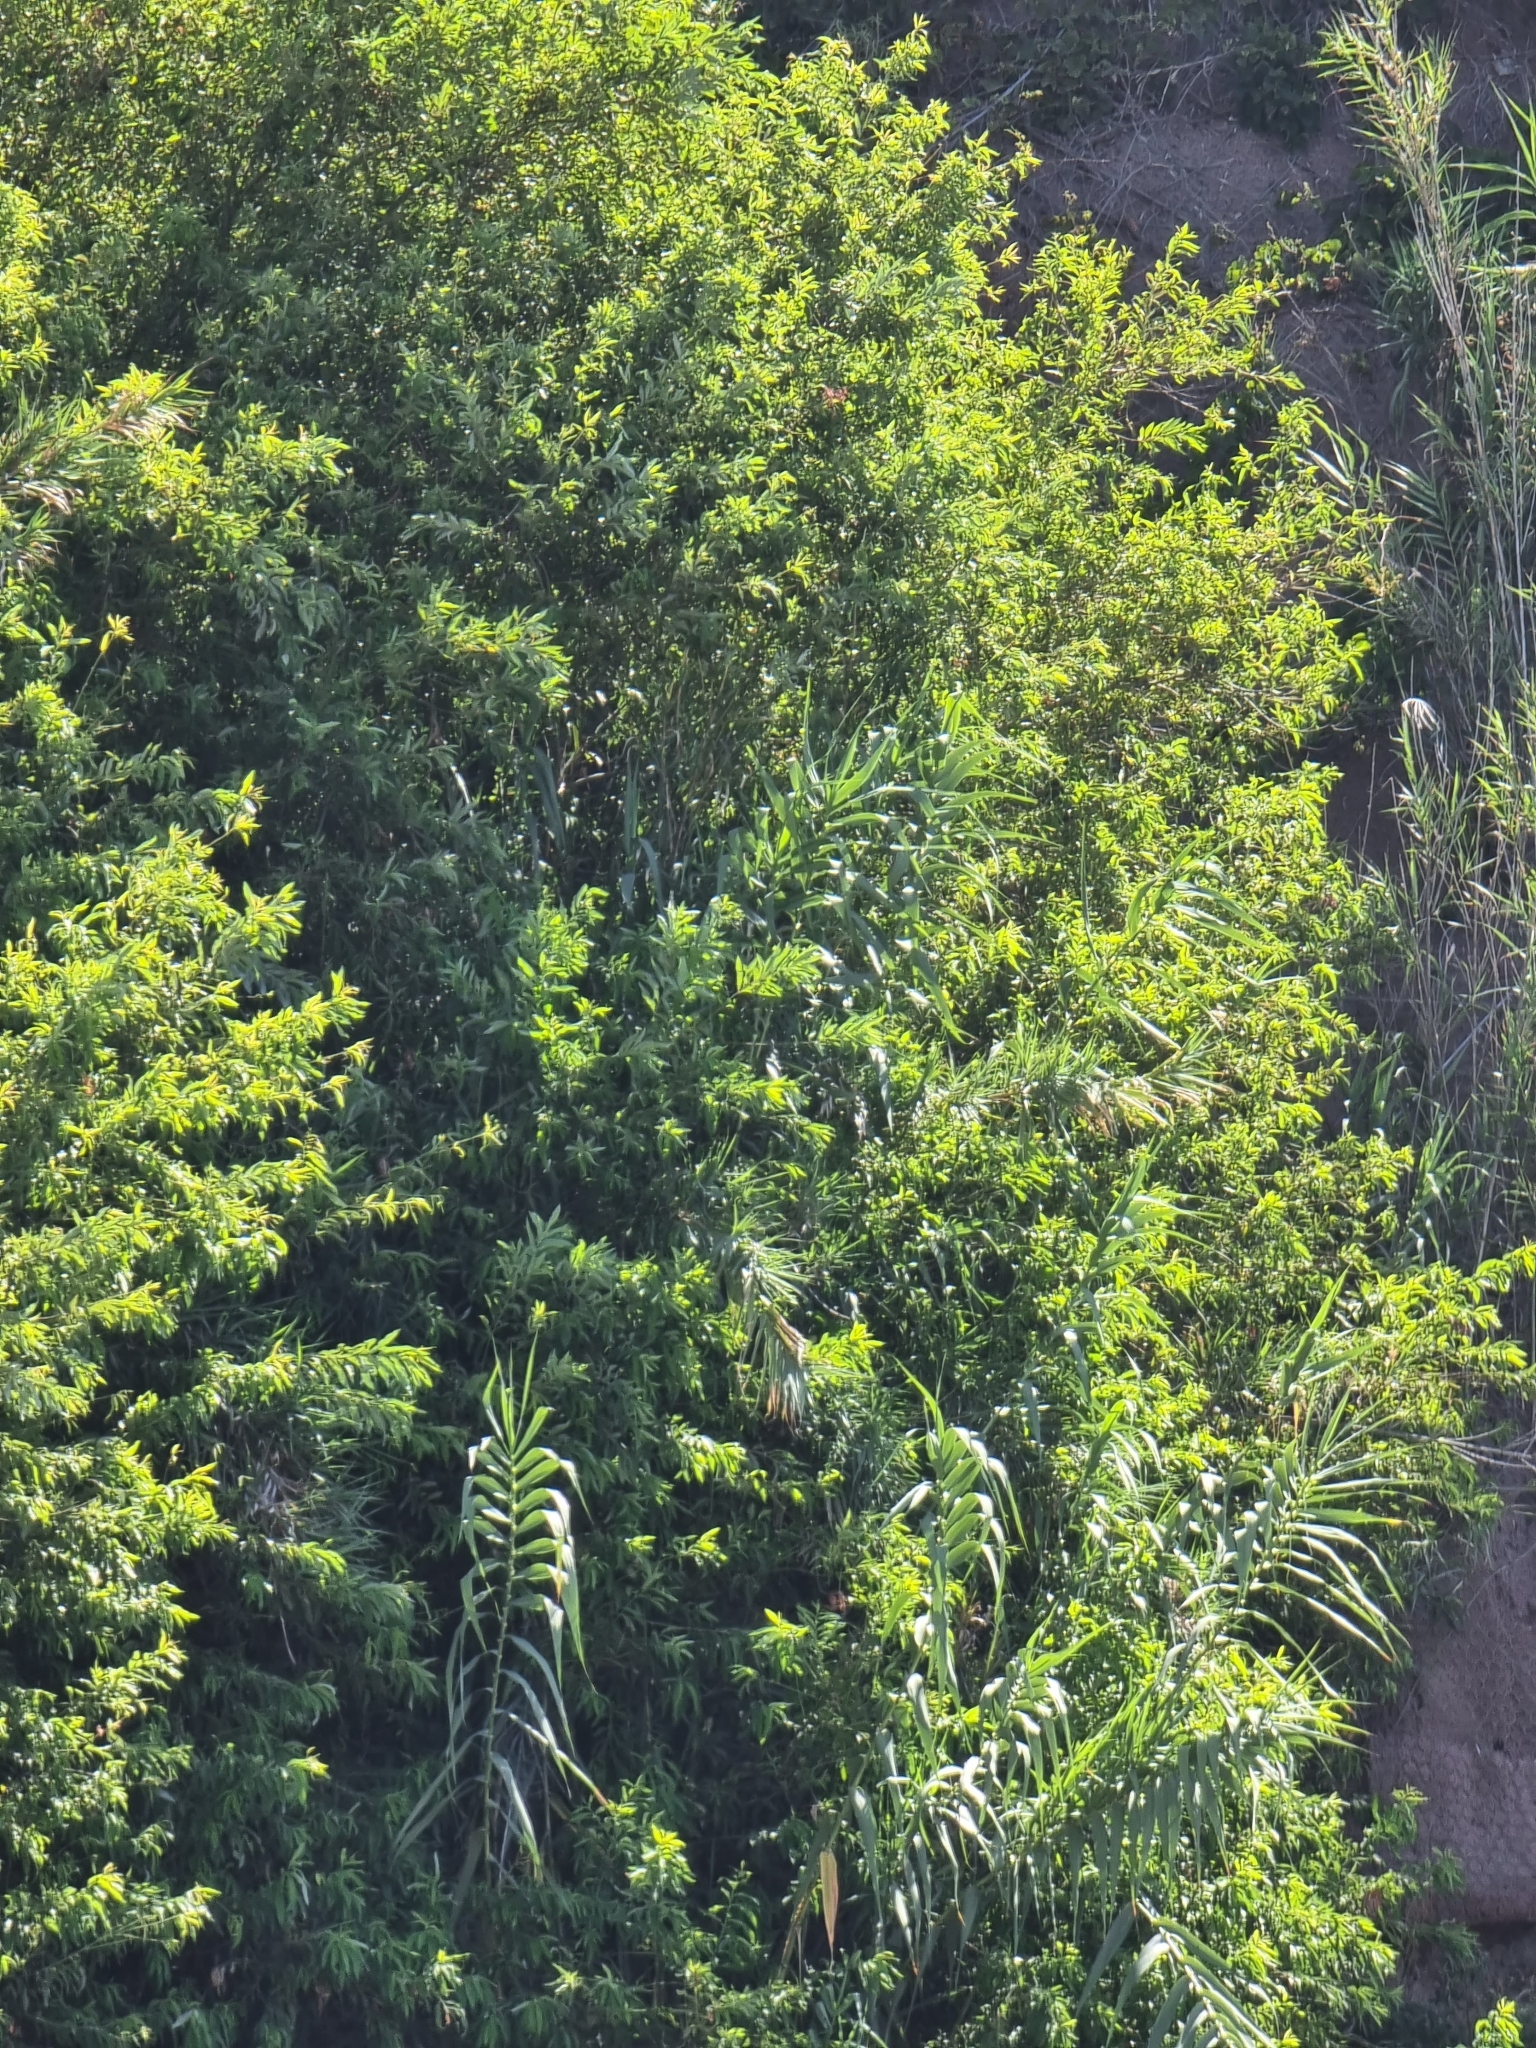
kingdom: Plantae
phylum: Tracheophyta
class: Magnoliopsida
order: Malpighiales
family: Salicaceae
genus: Salix
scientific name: Salix canariensis
